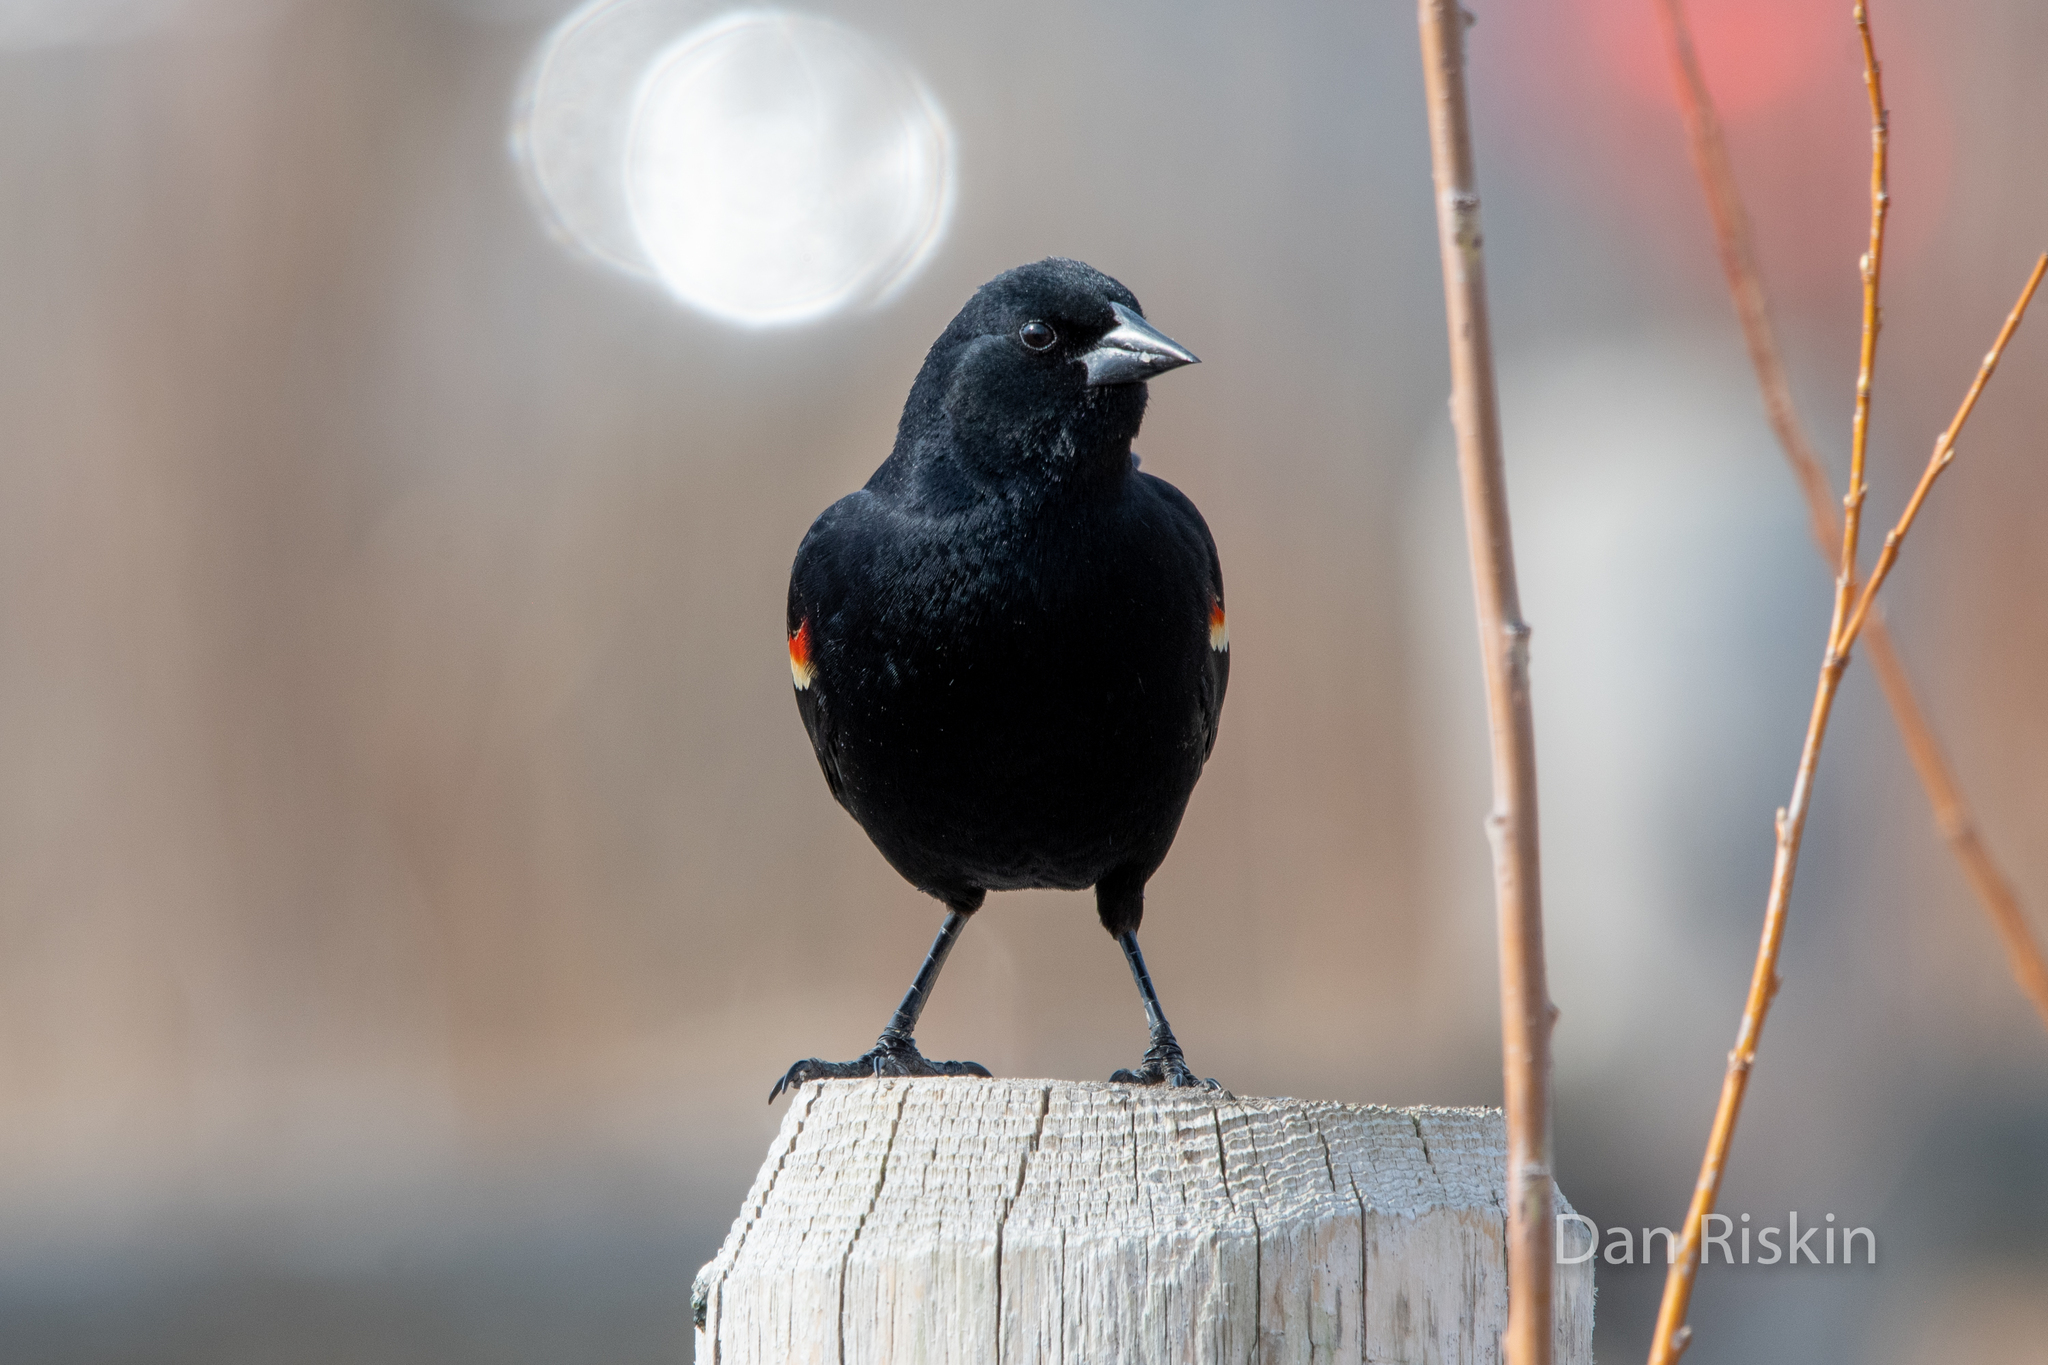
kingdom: Animalia
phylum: Chordata
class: Aves
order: Passeriformes
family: Icteridae
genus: Agelaius
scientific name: Agelaius phoeniceus
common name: Red-winged blackbird
